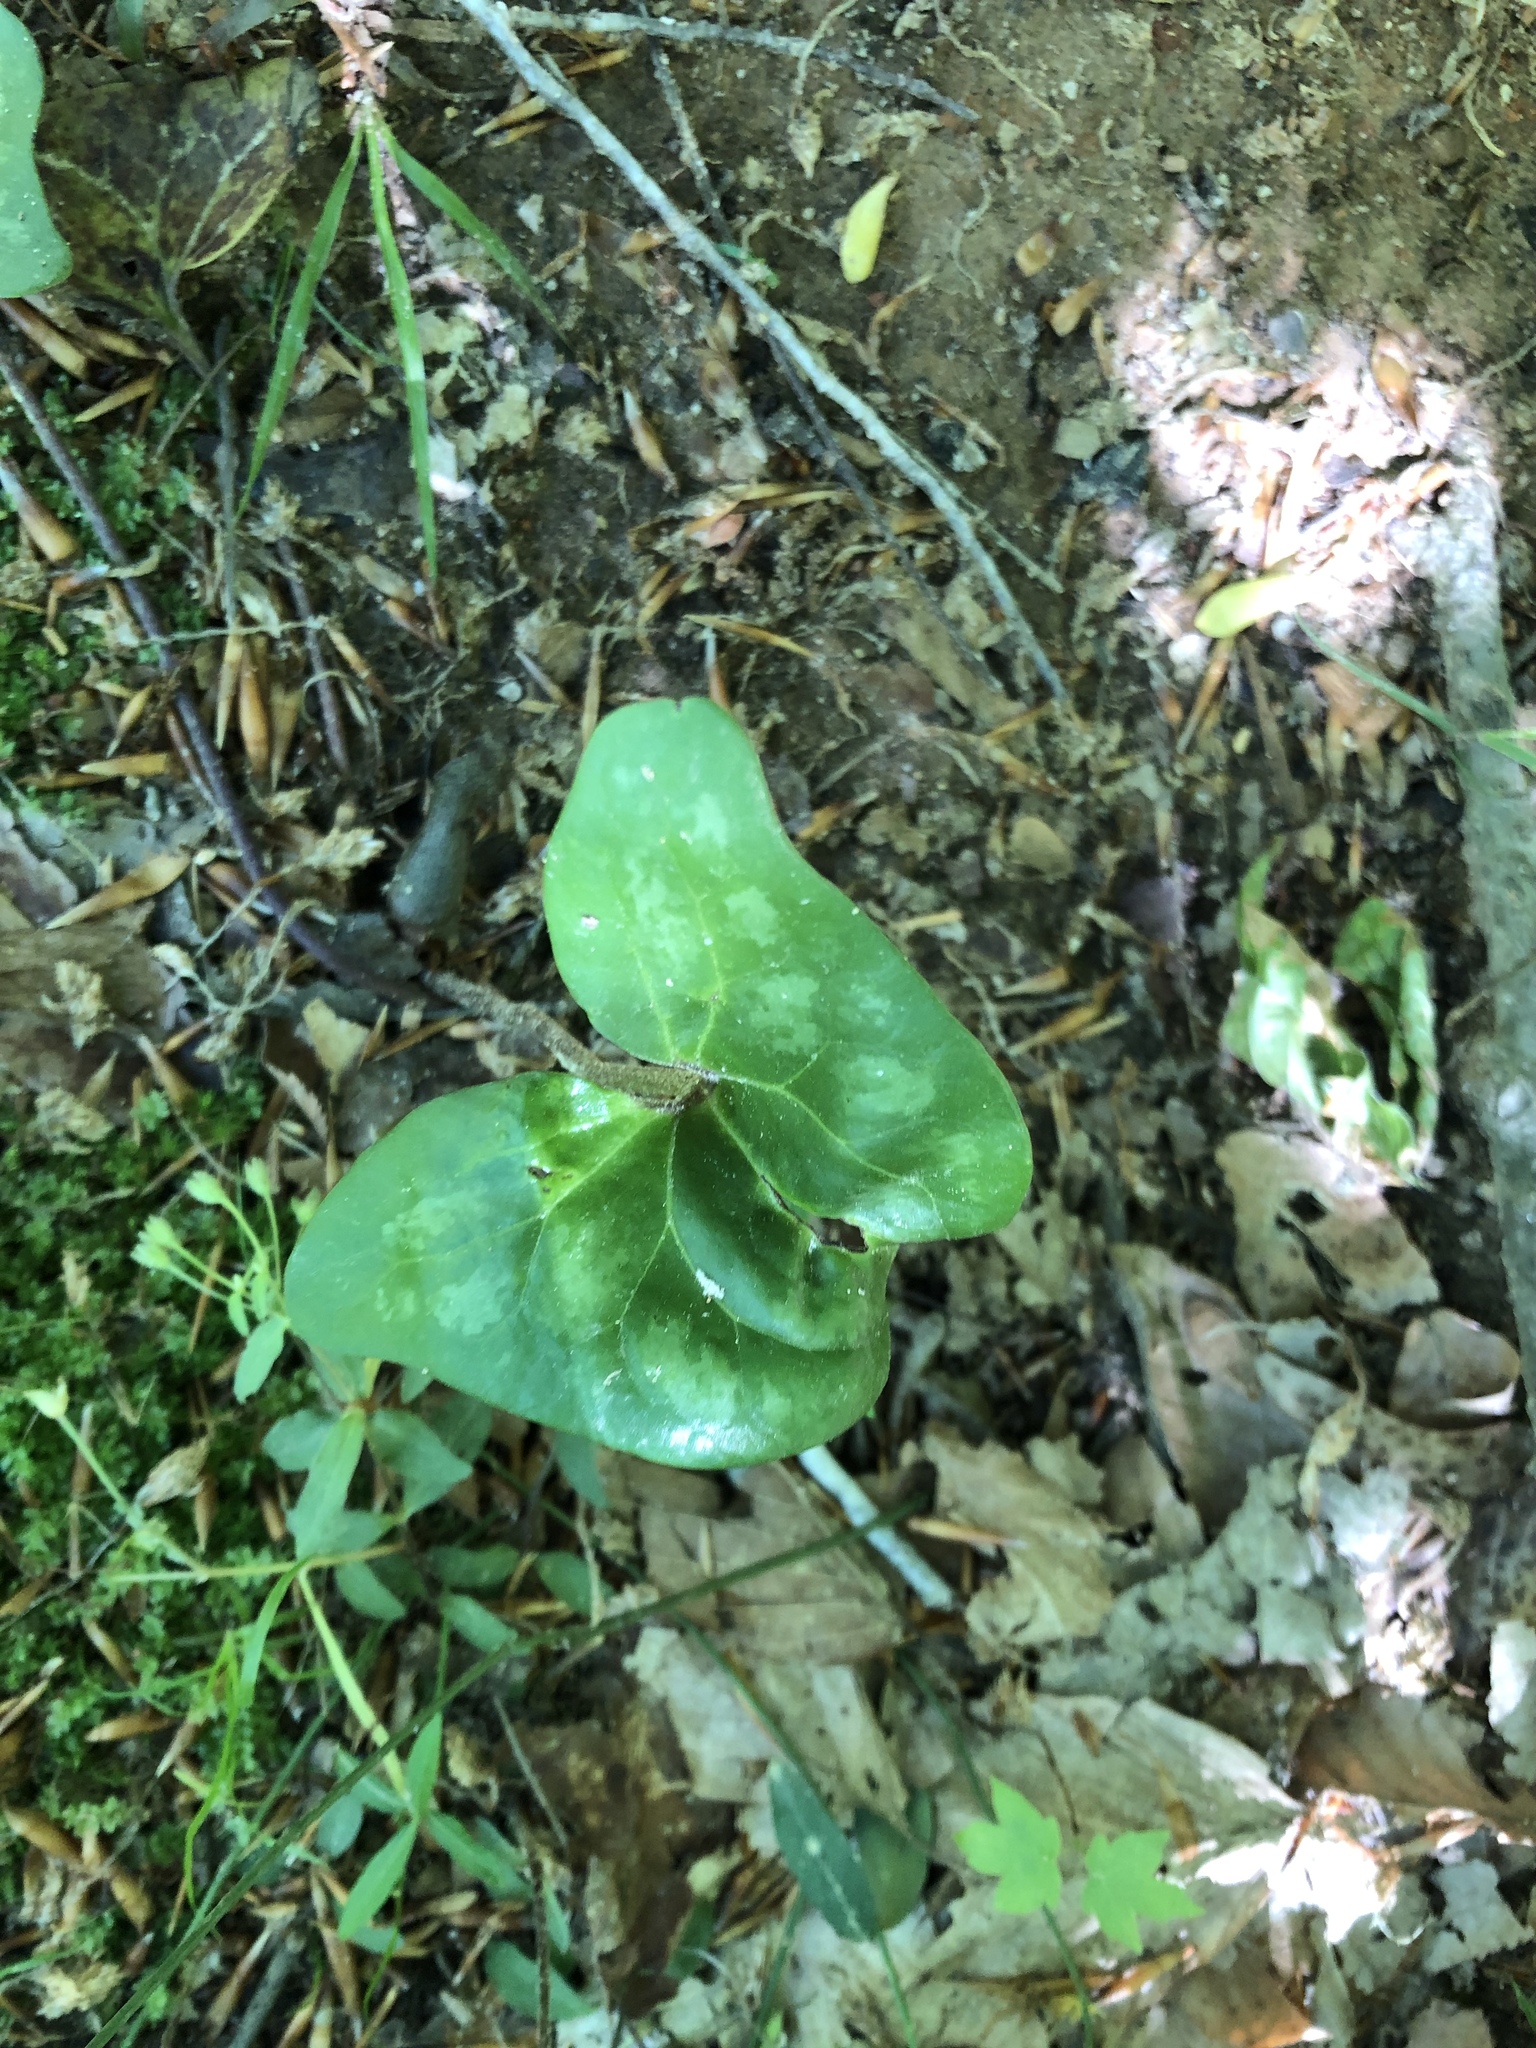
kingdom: Plantae
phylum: Tracheophyta
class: Magnoliopsida
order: Piperales
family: Aristolochiaceae
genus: Hexastylis
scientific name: Hexastylis arifolia
